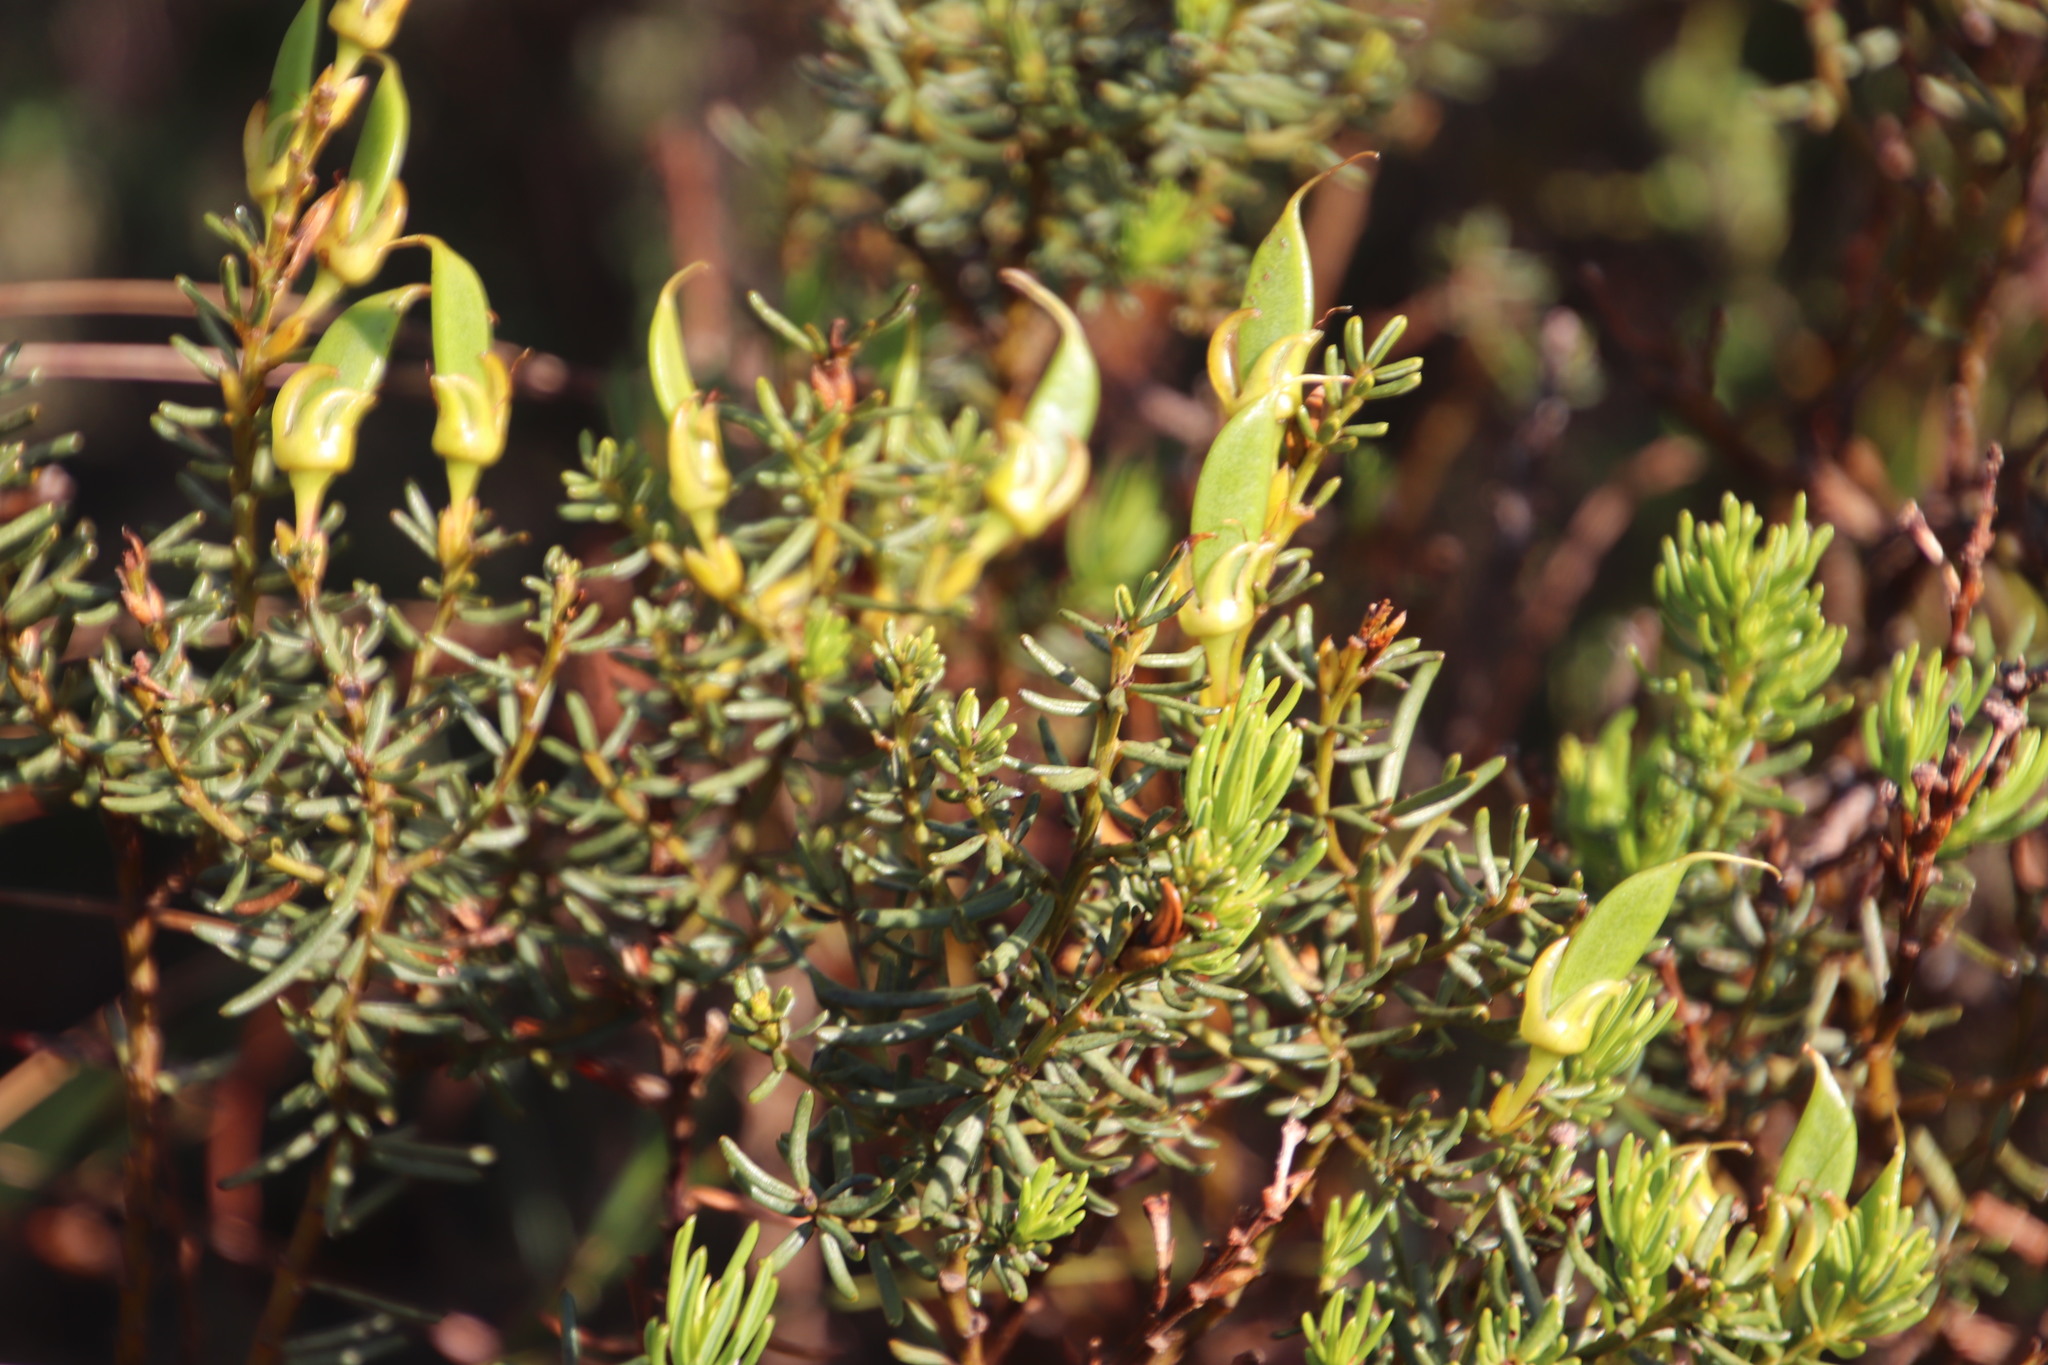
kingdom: Plantae
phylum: Tracheophyta
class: Magnoliopsida
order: Fabales
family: Fabaceae
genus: Cyclopia
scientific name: Cyclopia genistoides
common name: Honeybush tea
